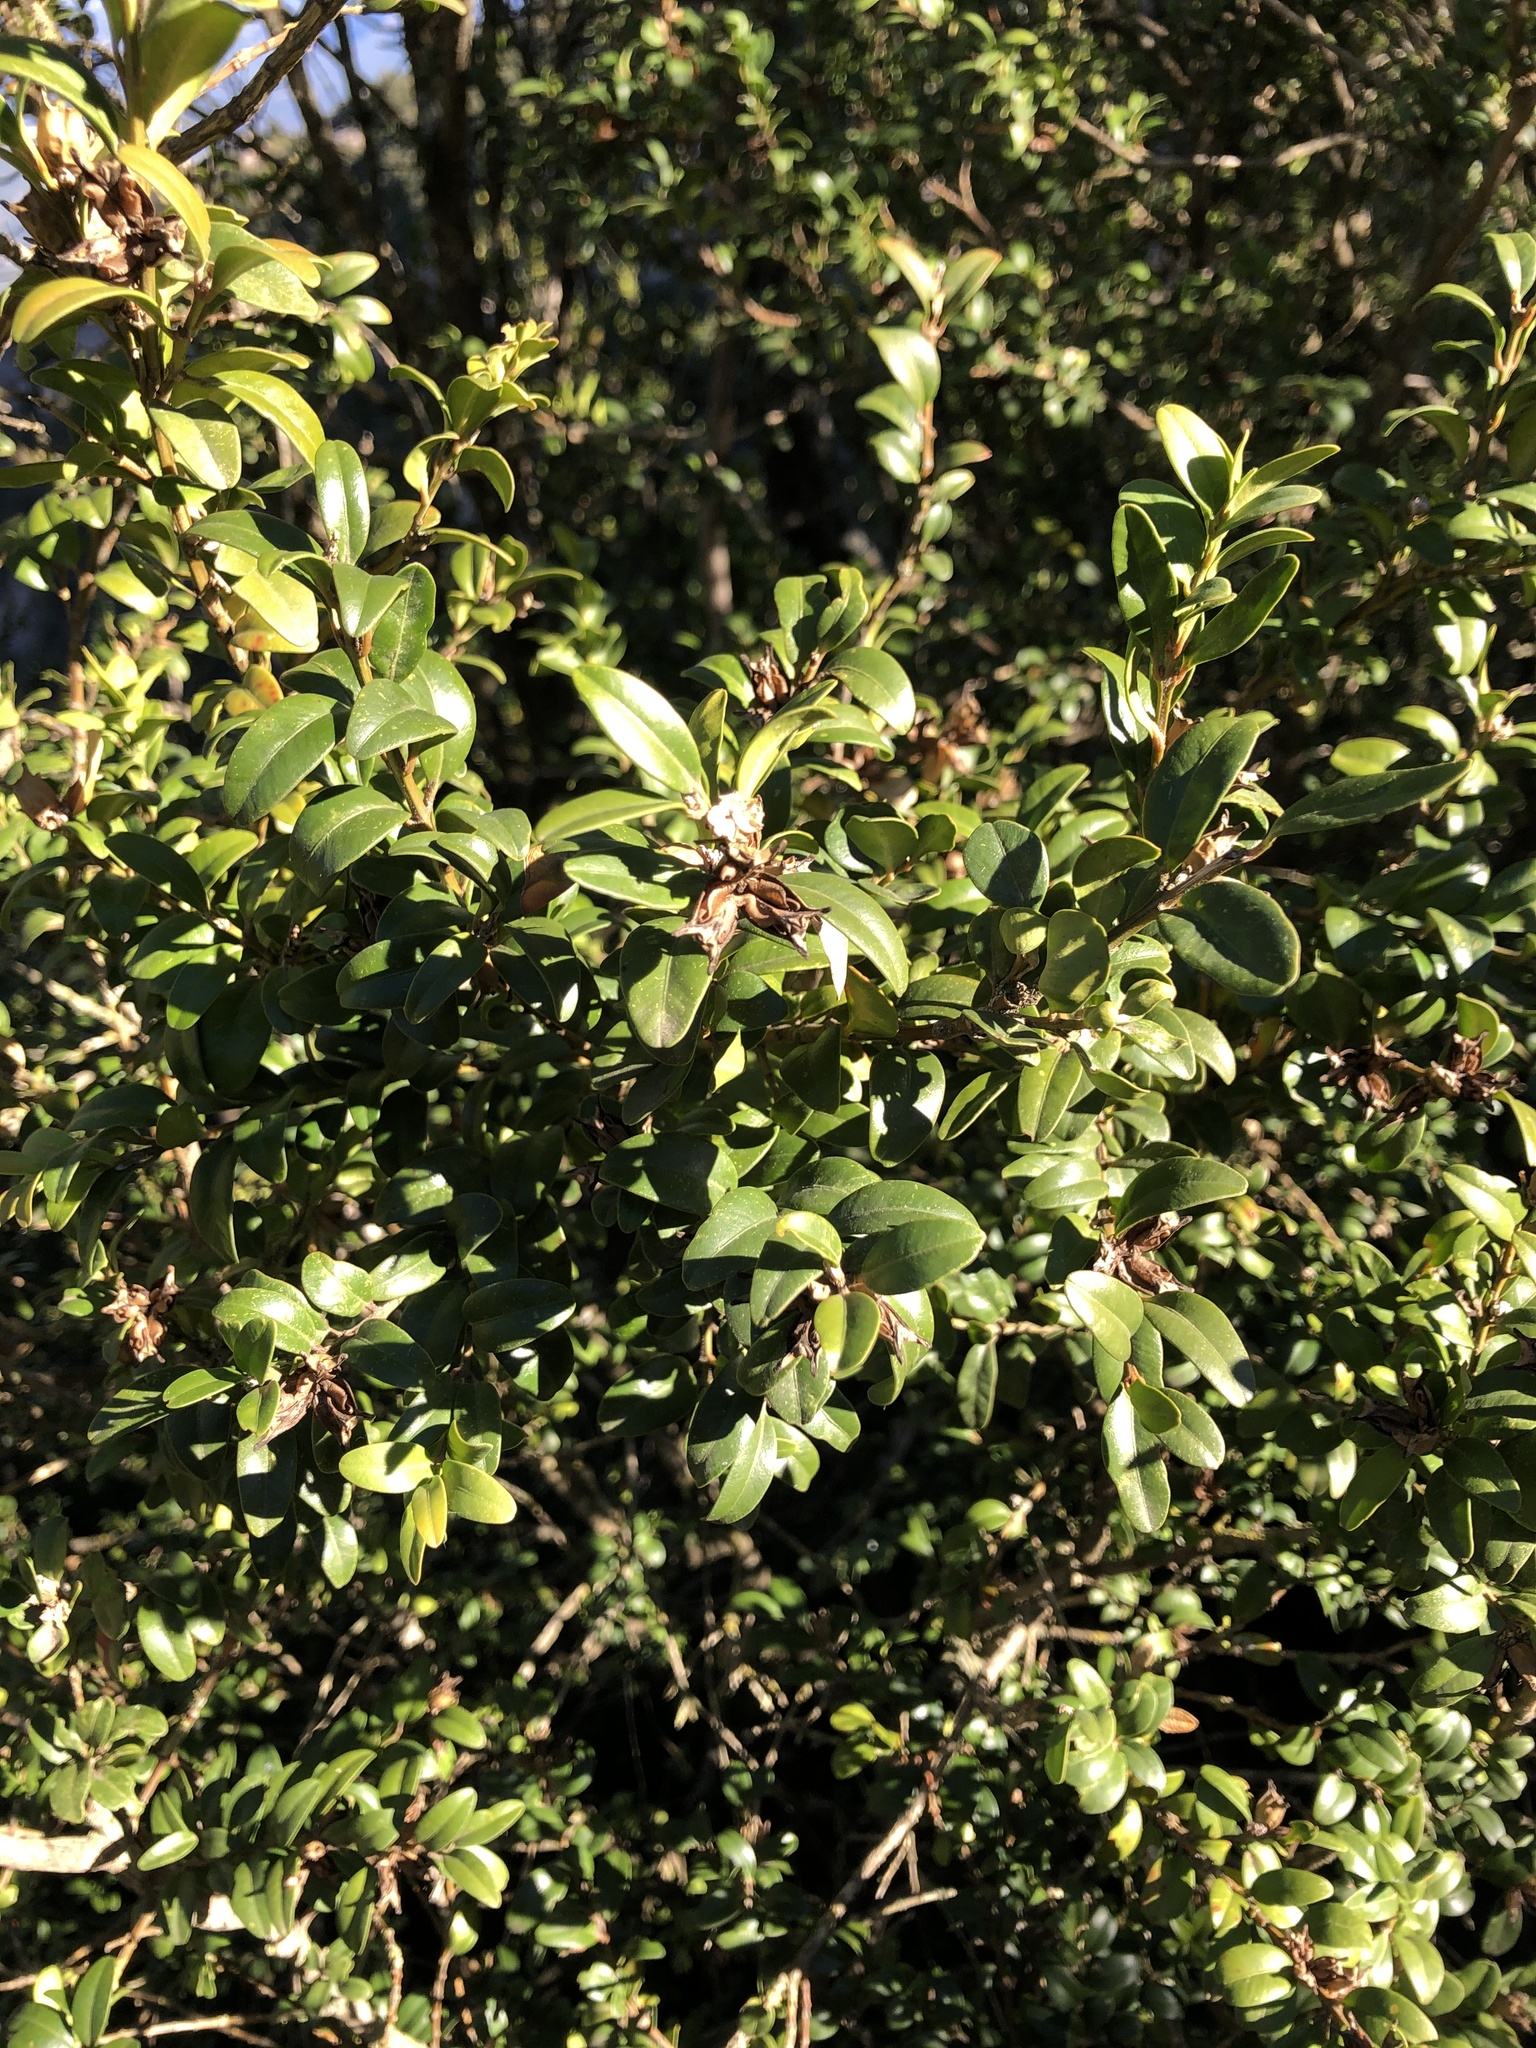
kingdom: Plantae
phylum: Tracheophyta
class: Magnoliopsida
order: Buxales
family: Buxaceae
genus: Buxus
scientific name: Buxus sempervirens
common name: Box
